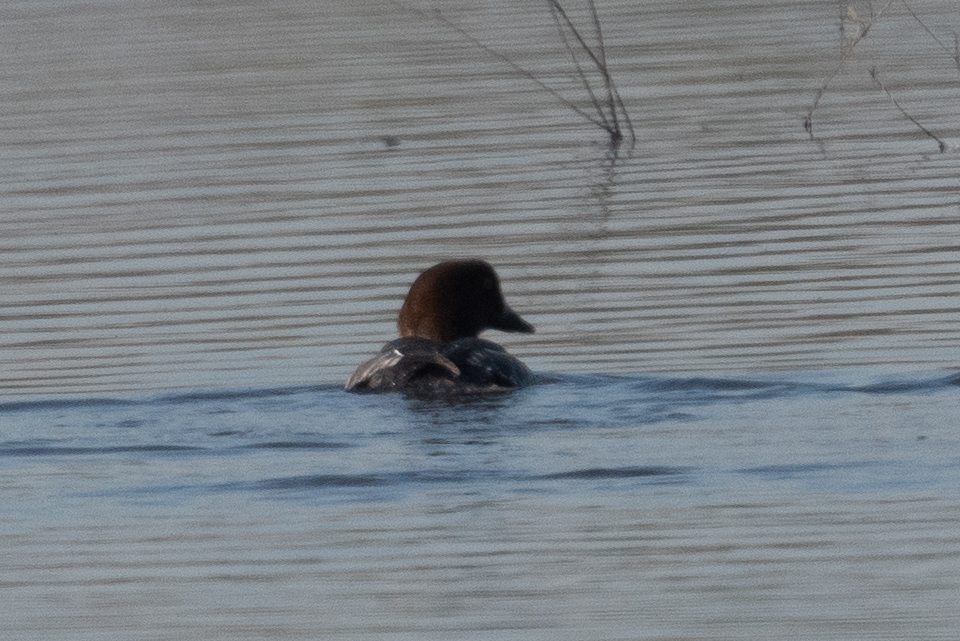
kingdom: Animalia
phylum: Chordata
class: Aves
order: Anseriformes
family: Anatidae
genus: Bucephala
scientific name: Bucephala clangula
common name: Common goldeneye
